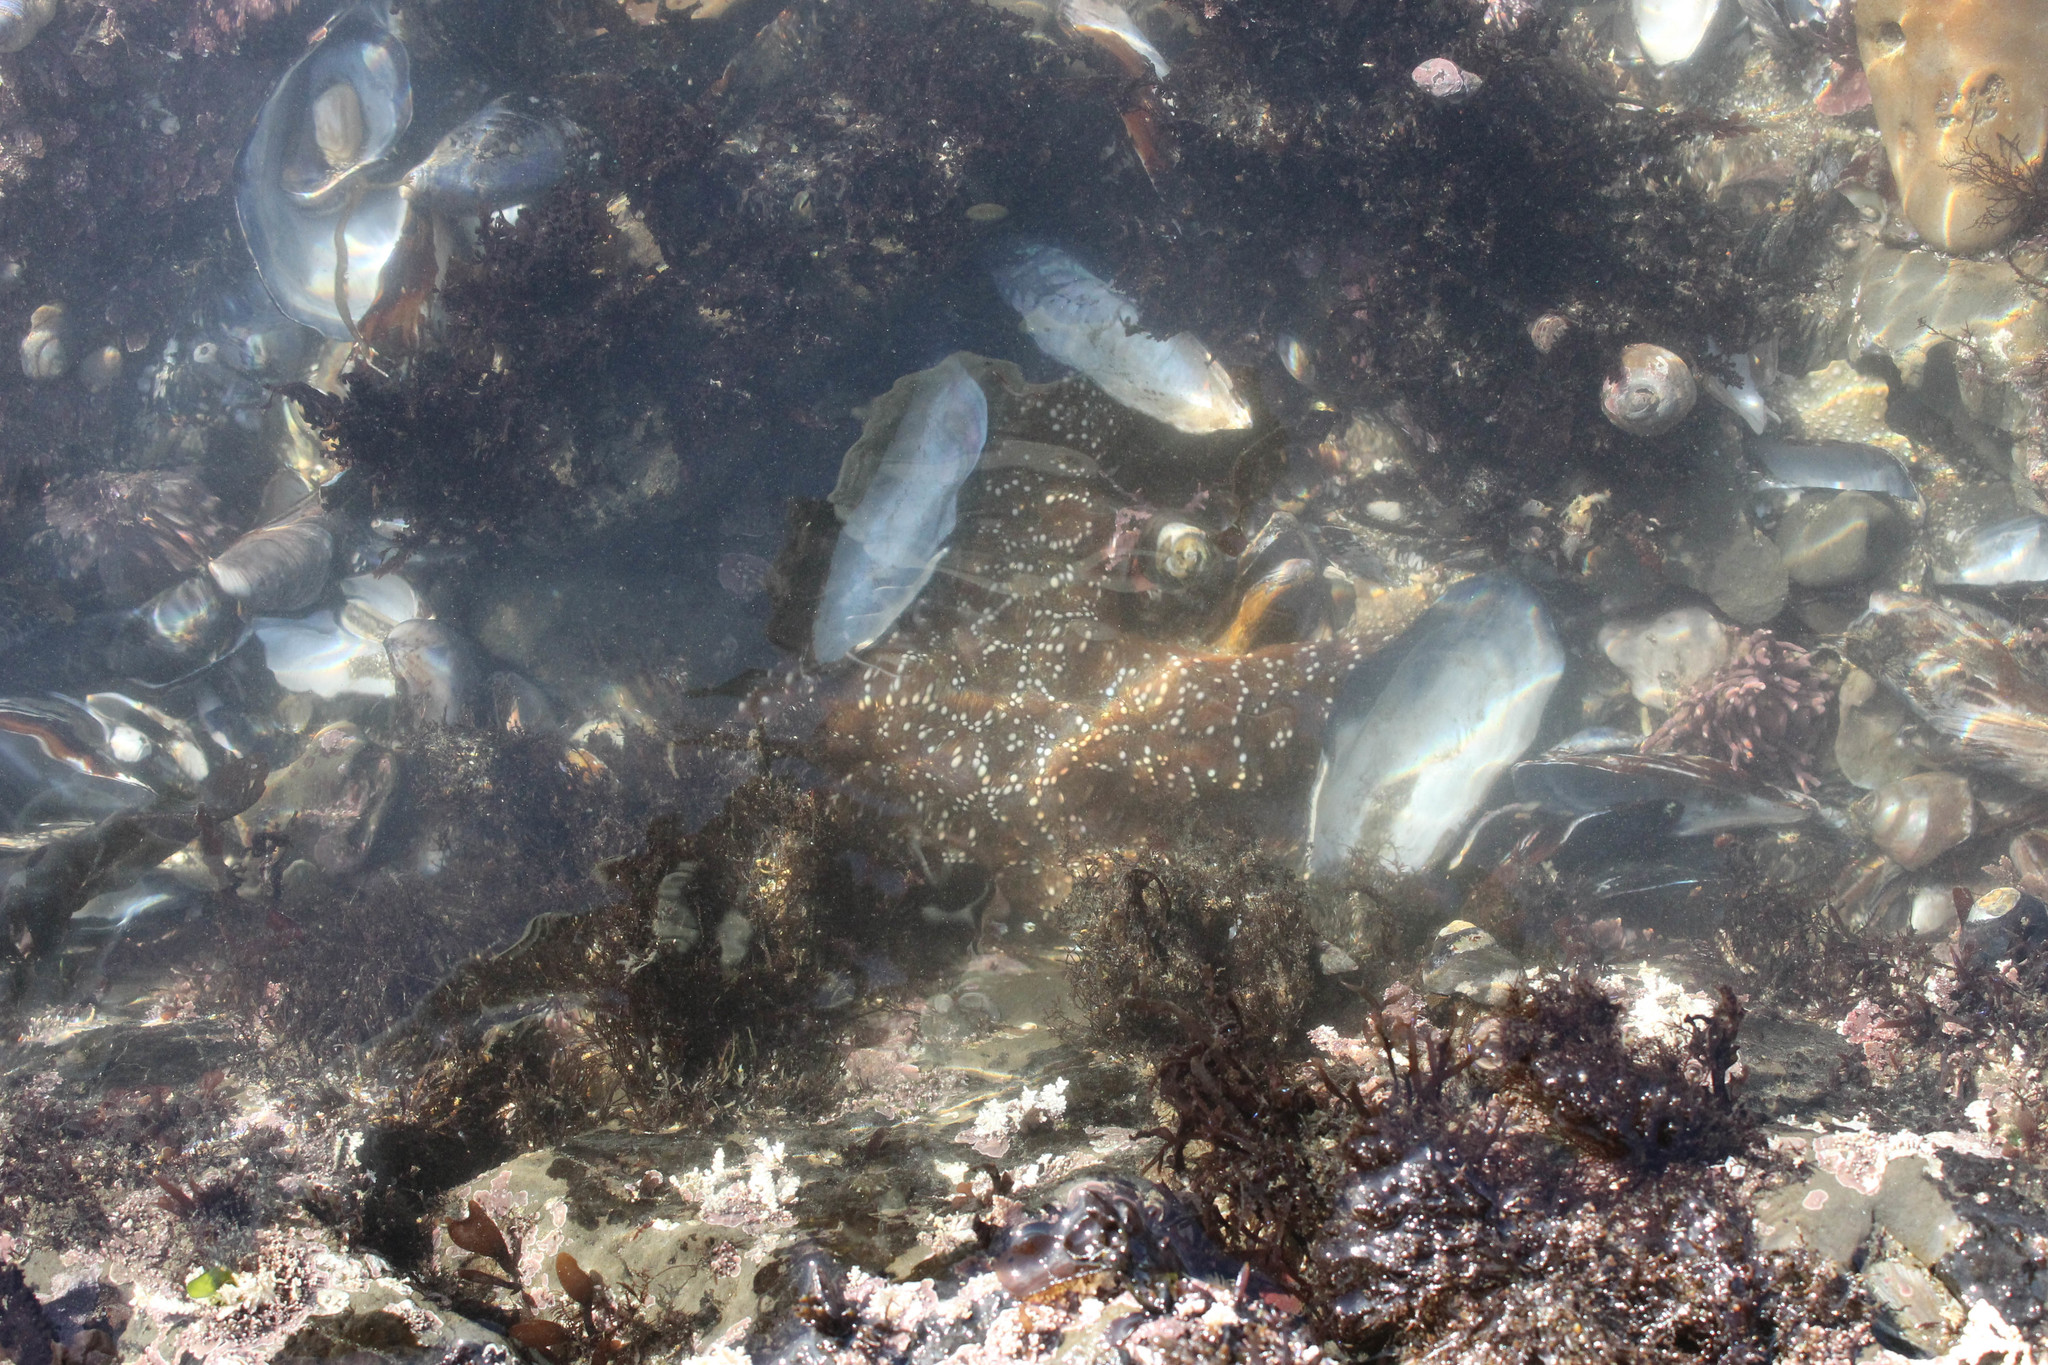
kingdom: Animalia
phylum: Echinodermata
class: Asteroidea
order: Forcipulatida
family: Asteriidae
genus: Pisaster
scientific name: Pisaster ochraceus
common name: Ochre stars
